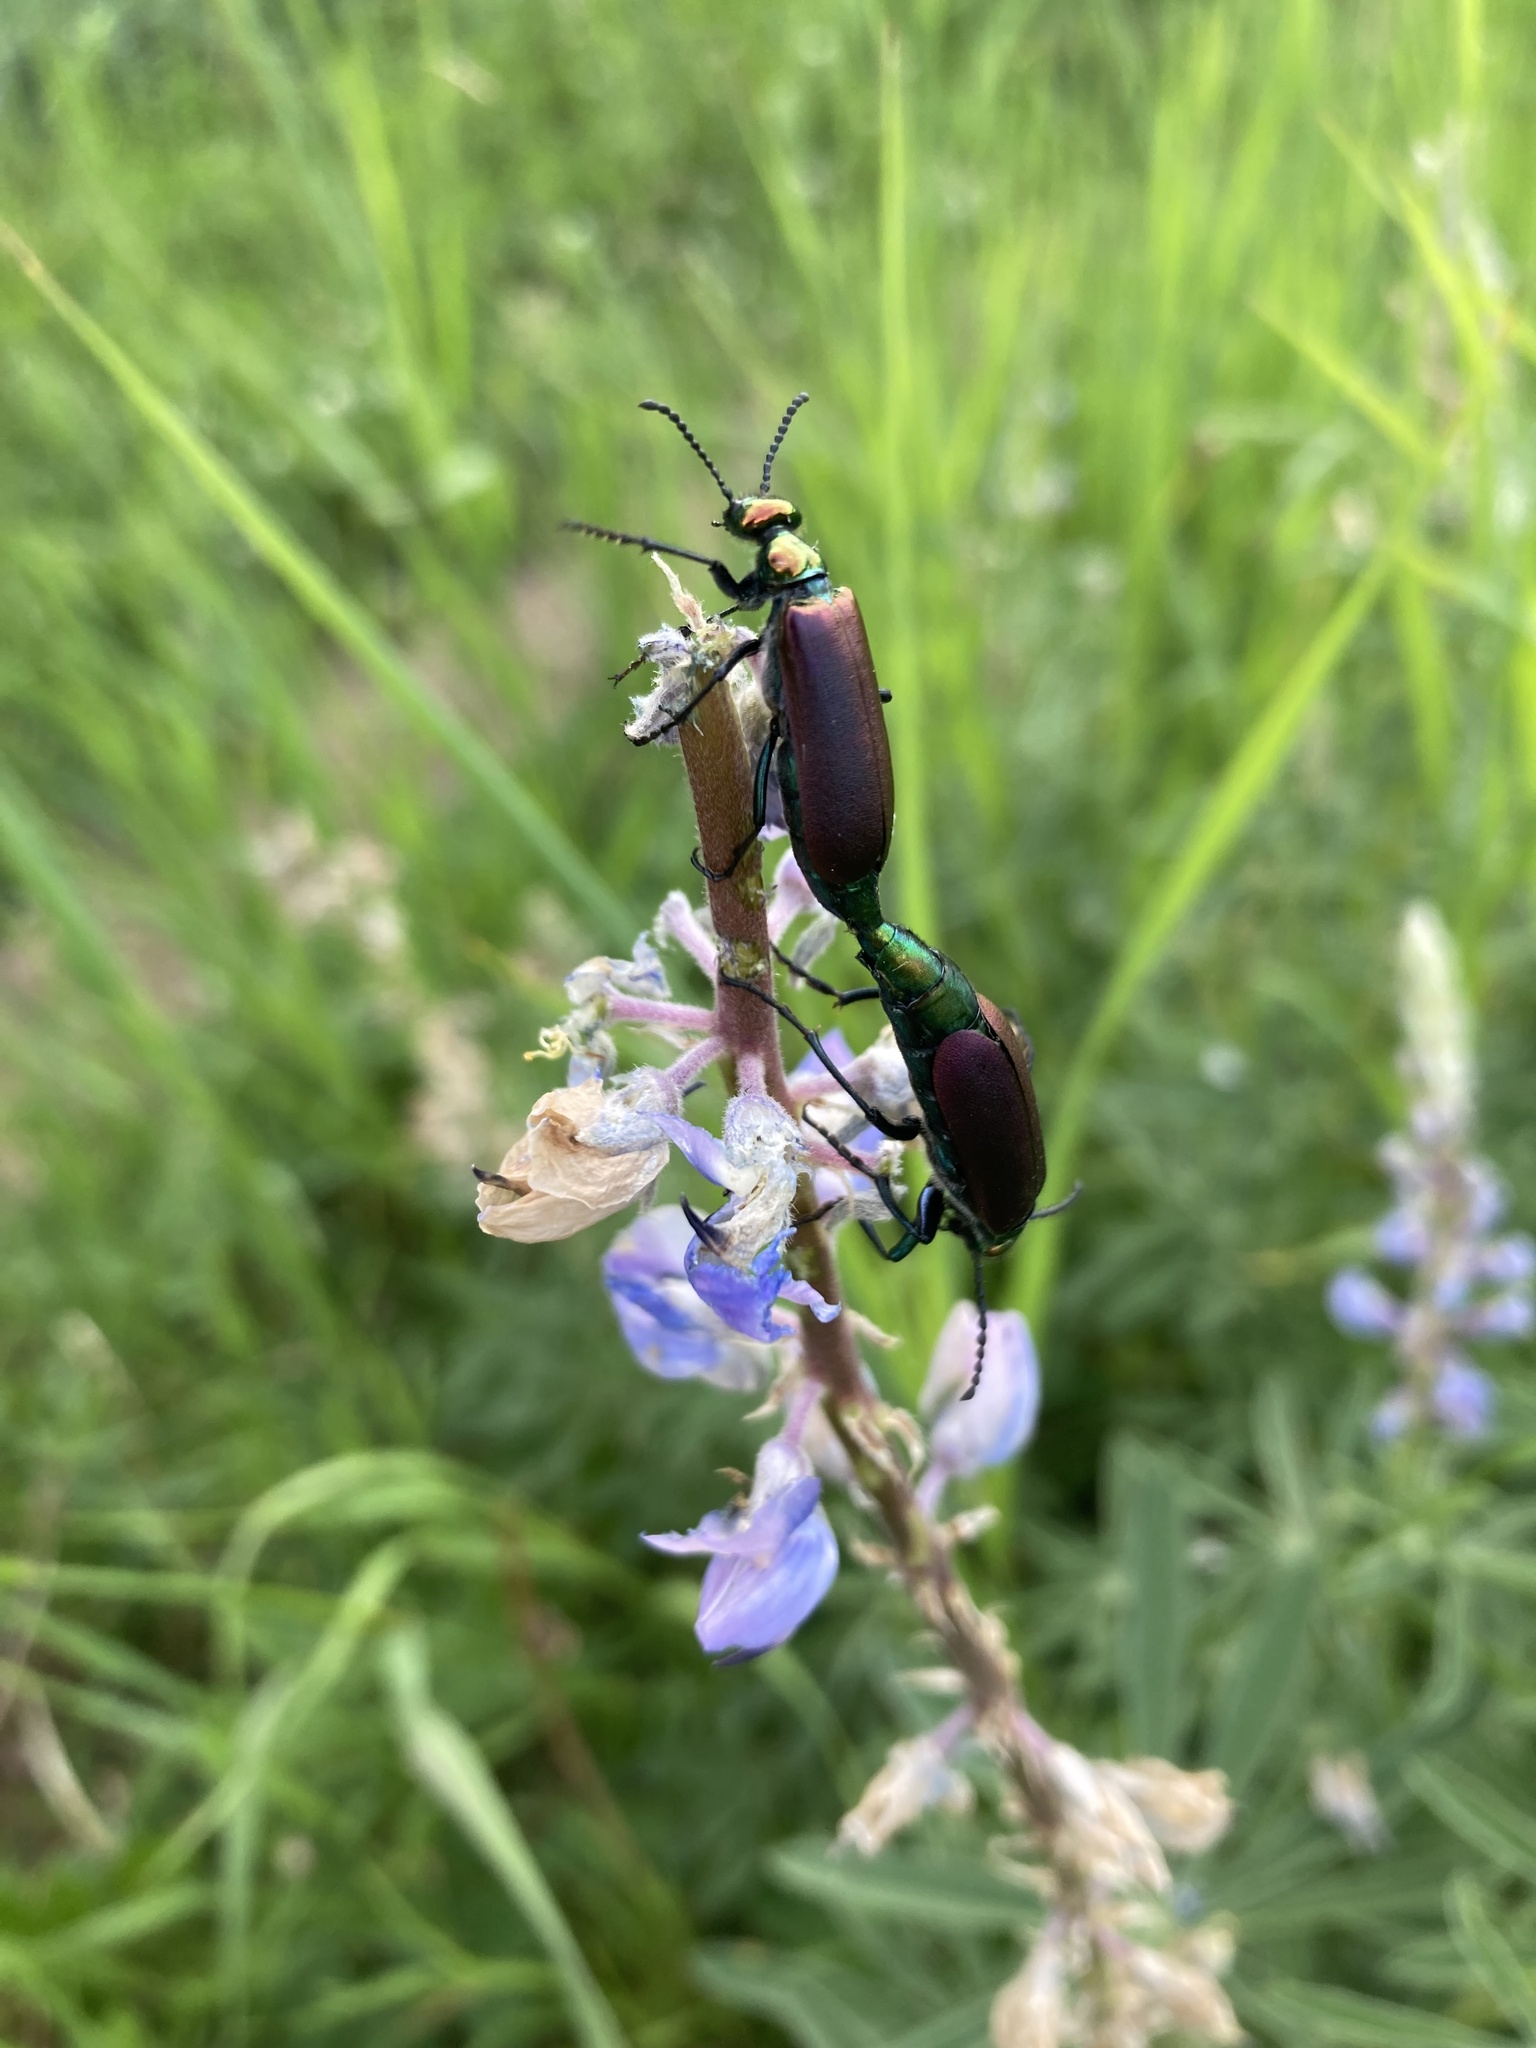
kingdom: Animalia
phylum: Arthropoda
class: Insecta
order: Coleoptera
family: Meloidae
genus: Lytta
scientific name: Lytta nuttallii
